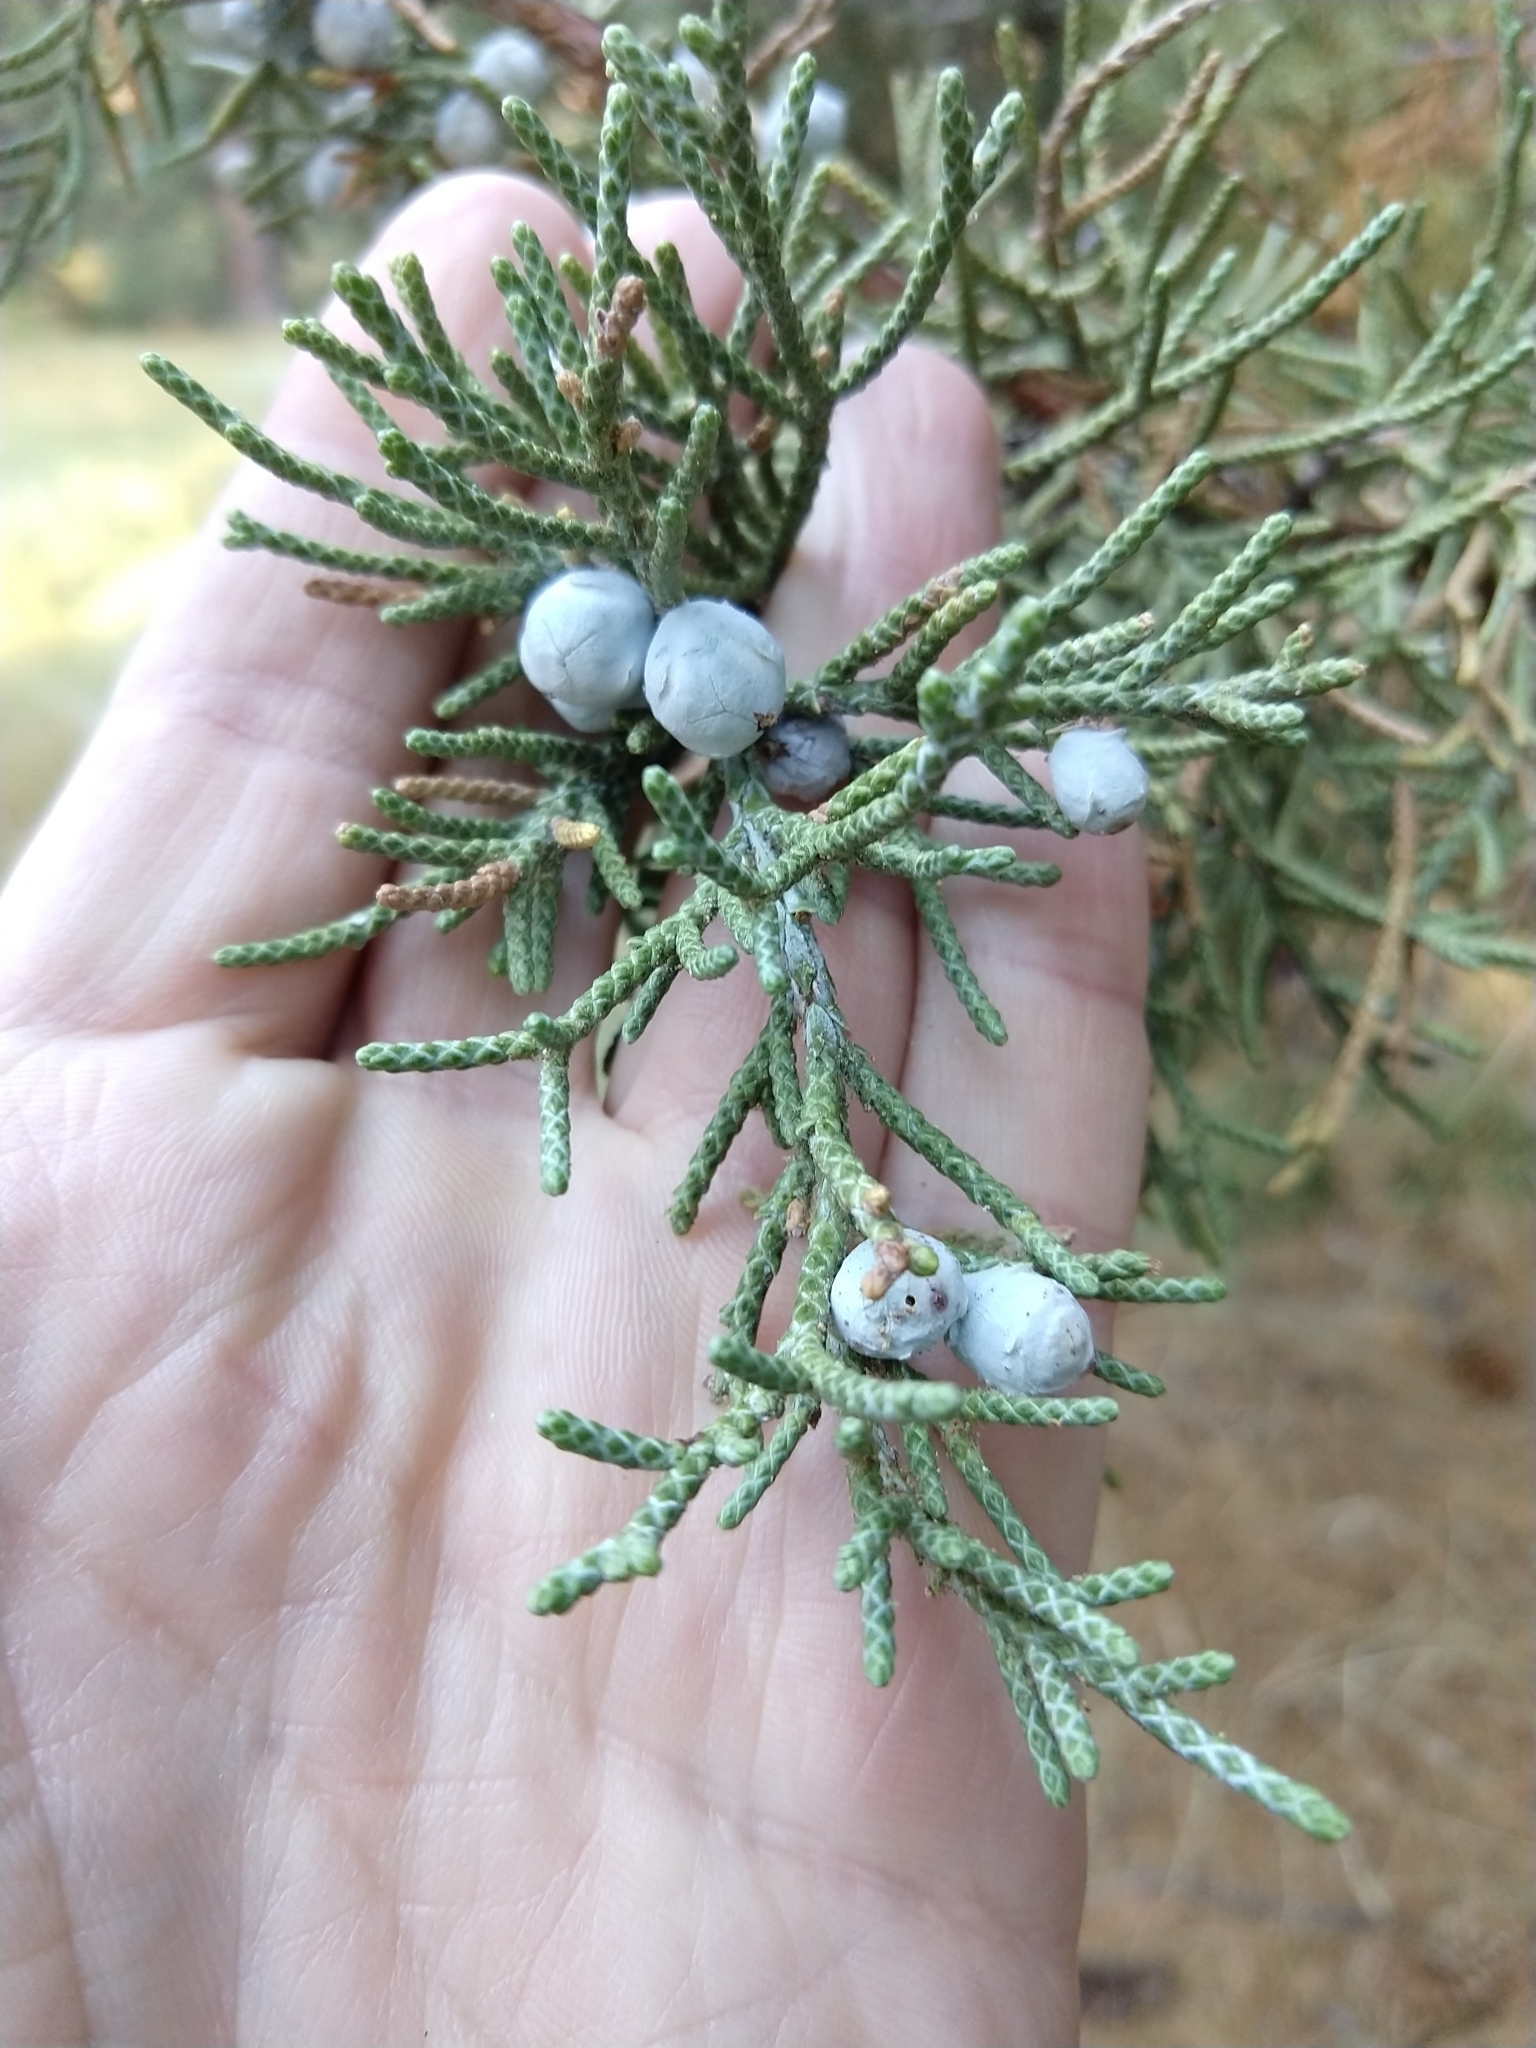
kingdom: Plantae
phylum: Tracheophyta
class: Pinopsida
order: Pinales
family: Cupressaceae
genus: Juniperus
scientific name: Juniperus occidentalis
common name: Western juniper
